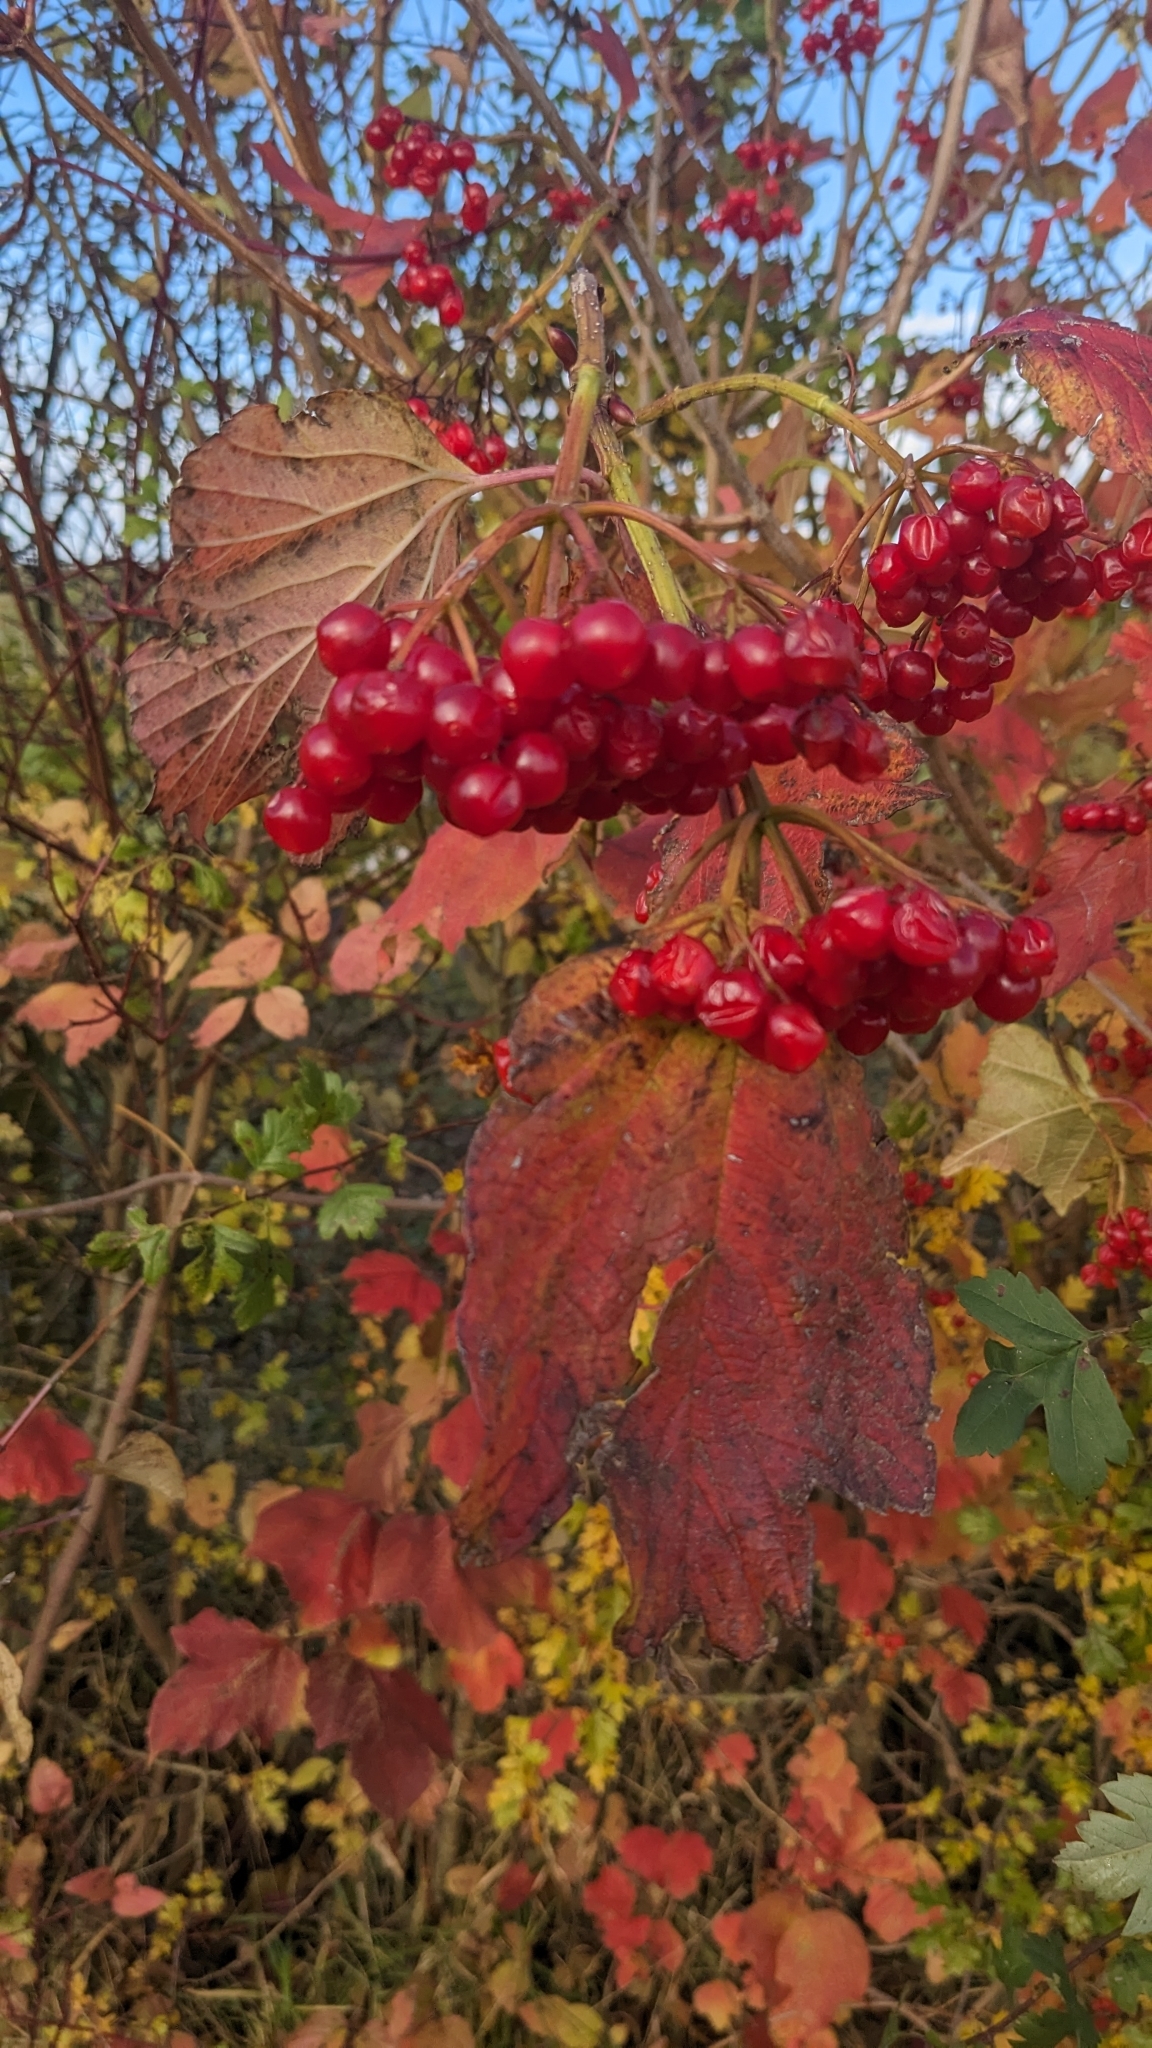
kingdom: Plantae
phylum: Tracheophyta
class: Magnoliopsida
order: Dipsacales
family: Viburnaceae
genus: Viburnum
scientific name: Viburnum opulus
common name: Guelder-rose
